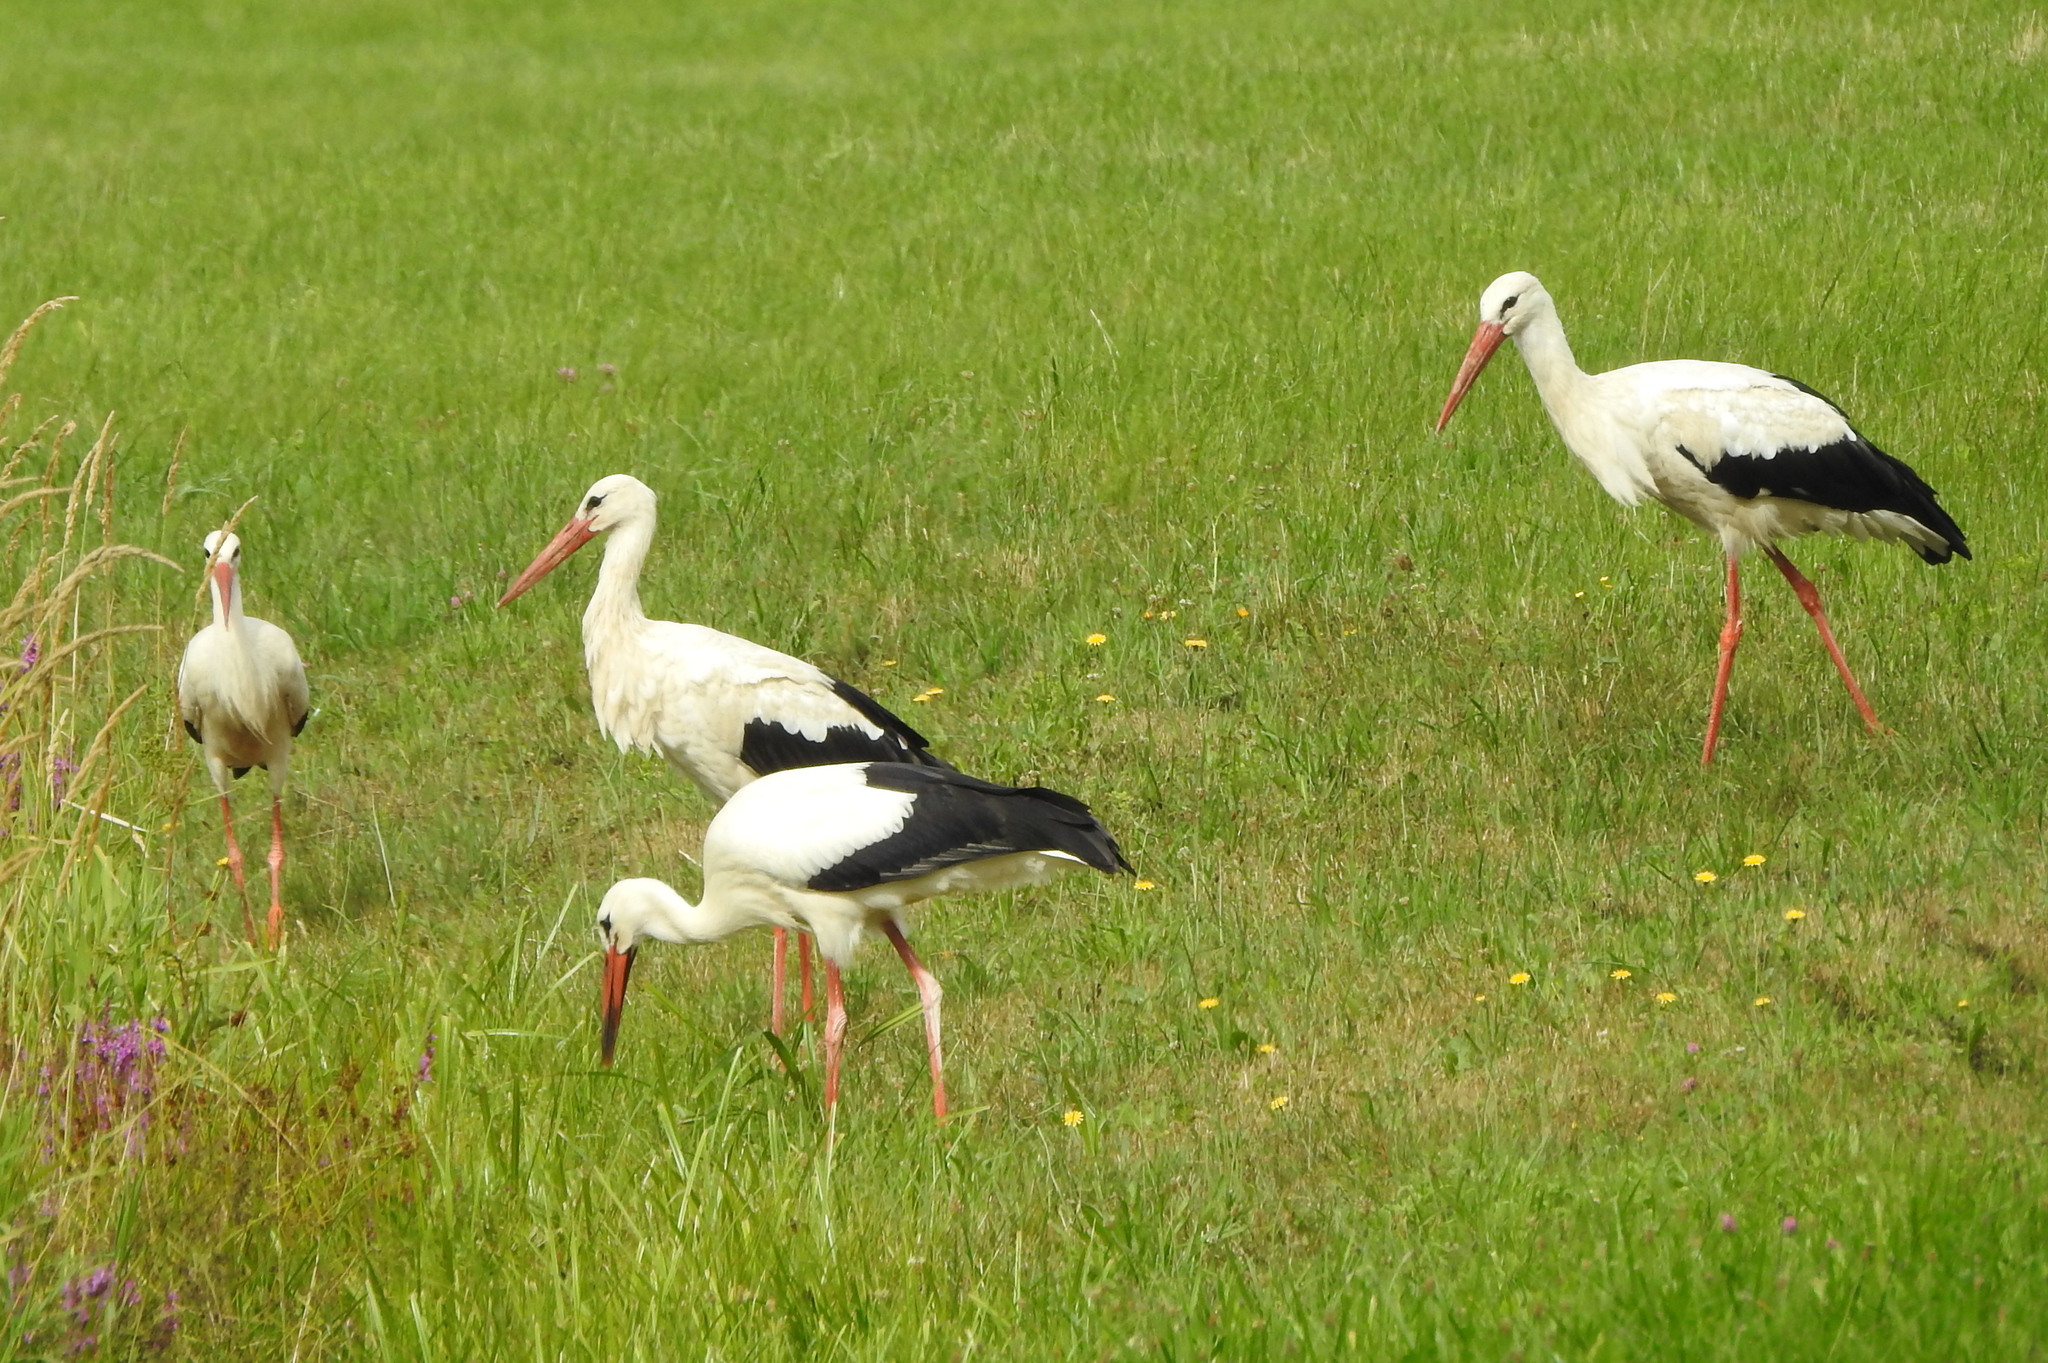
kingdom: Animalia
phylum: Chordata
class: Aves
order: Ciconiiformes
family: Ciconiidae
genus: Ciconia
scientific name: Ciconia ciconia
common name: White stork
